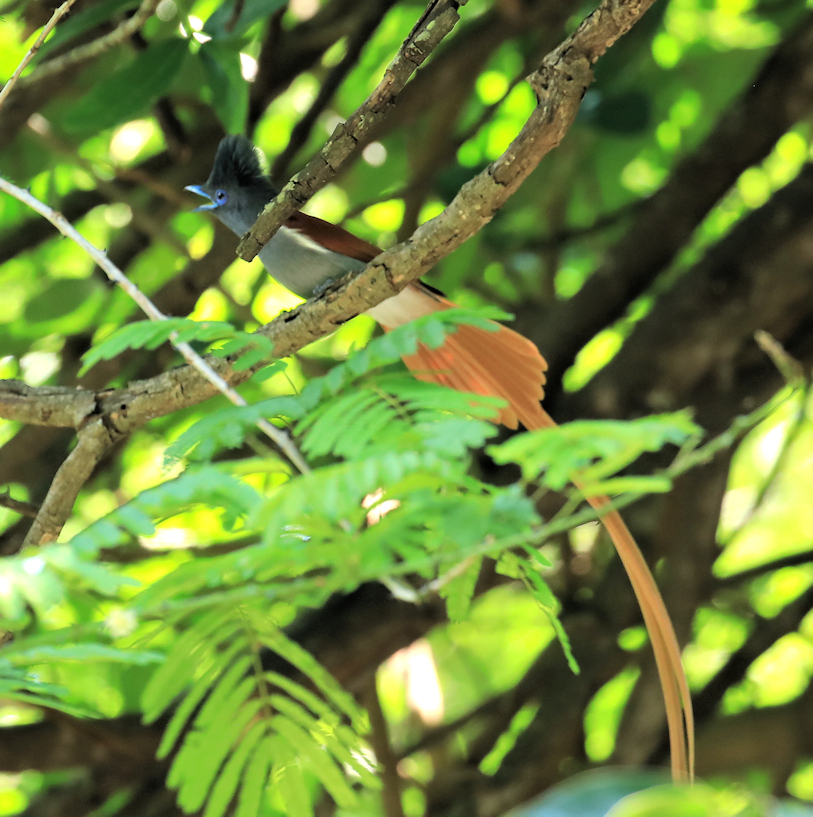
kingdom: Animalia
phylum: Chordata
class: Aves
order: Passeriformes
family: Monarchidae
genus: Terpsiphone
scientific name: Terpsiphone viridis
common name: African paradise flycatcher
